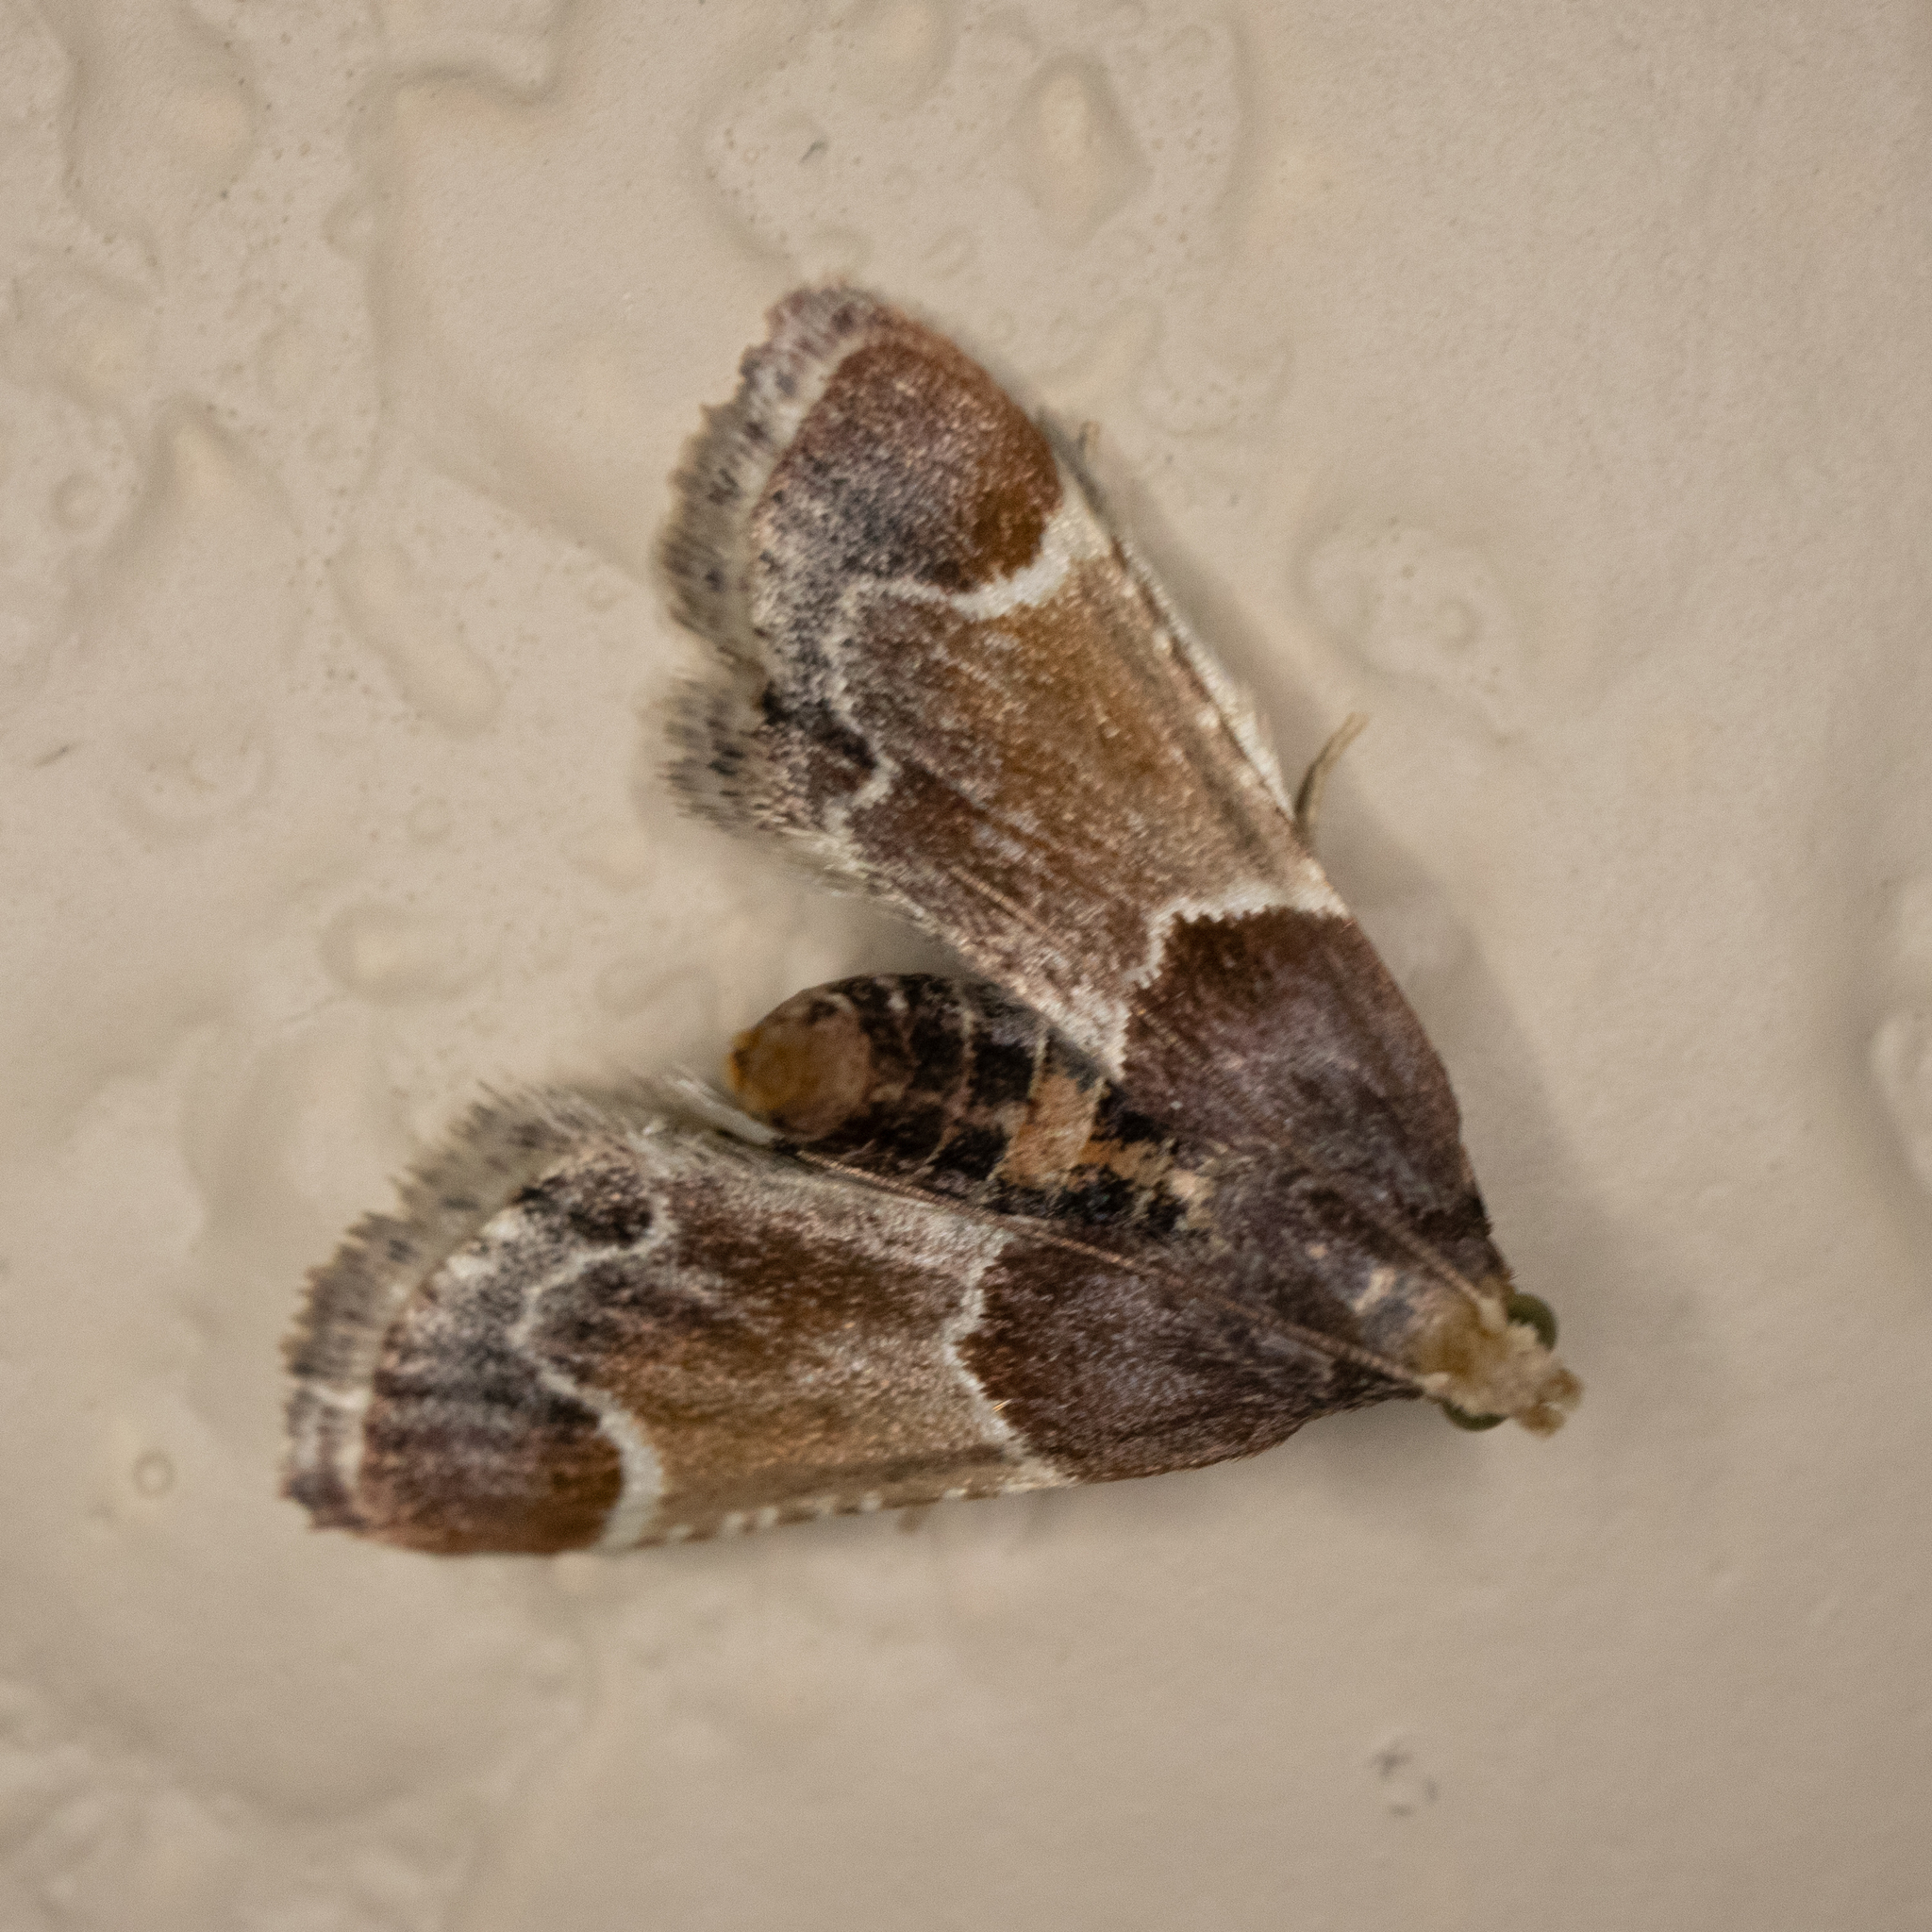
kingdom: Animalia
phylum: Arthropoda
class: Insecta
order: Lepidoptera
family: Pyralidae
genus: Pyralis
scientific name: Pyralis farinalis
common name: Meal moth
